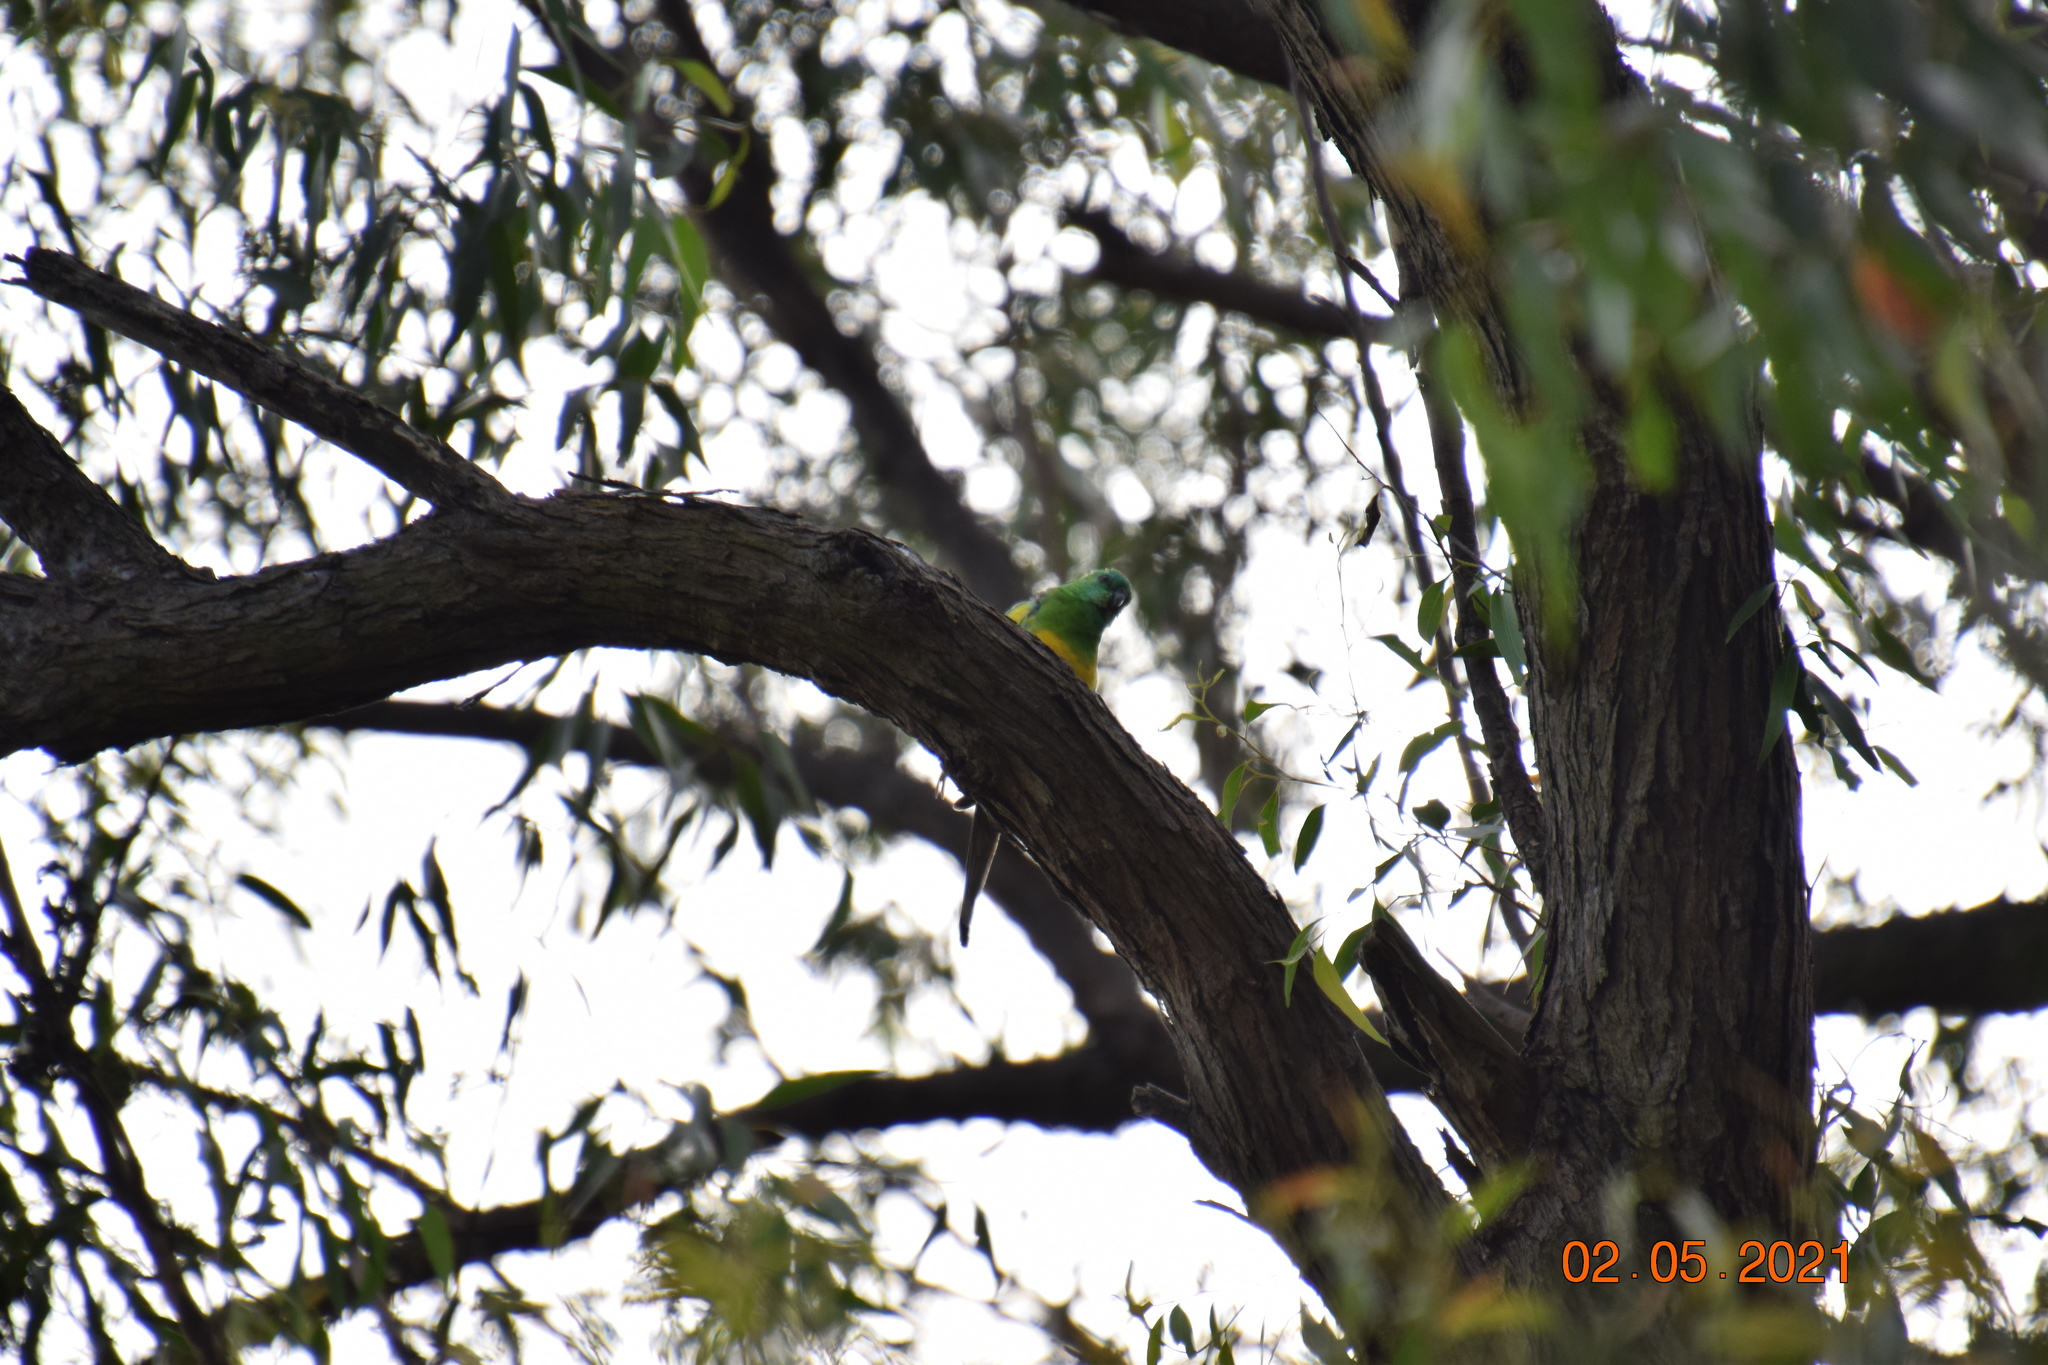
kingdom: Animalia
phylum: Chordata
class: Aves
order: Psittaciformes
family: Psittacidae
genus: Psephotus
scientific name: Psephotus haematonotus
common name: Red-rumped parrot
